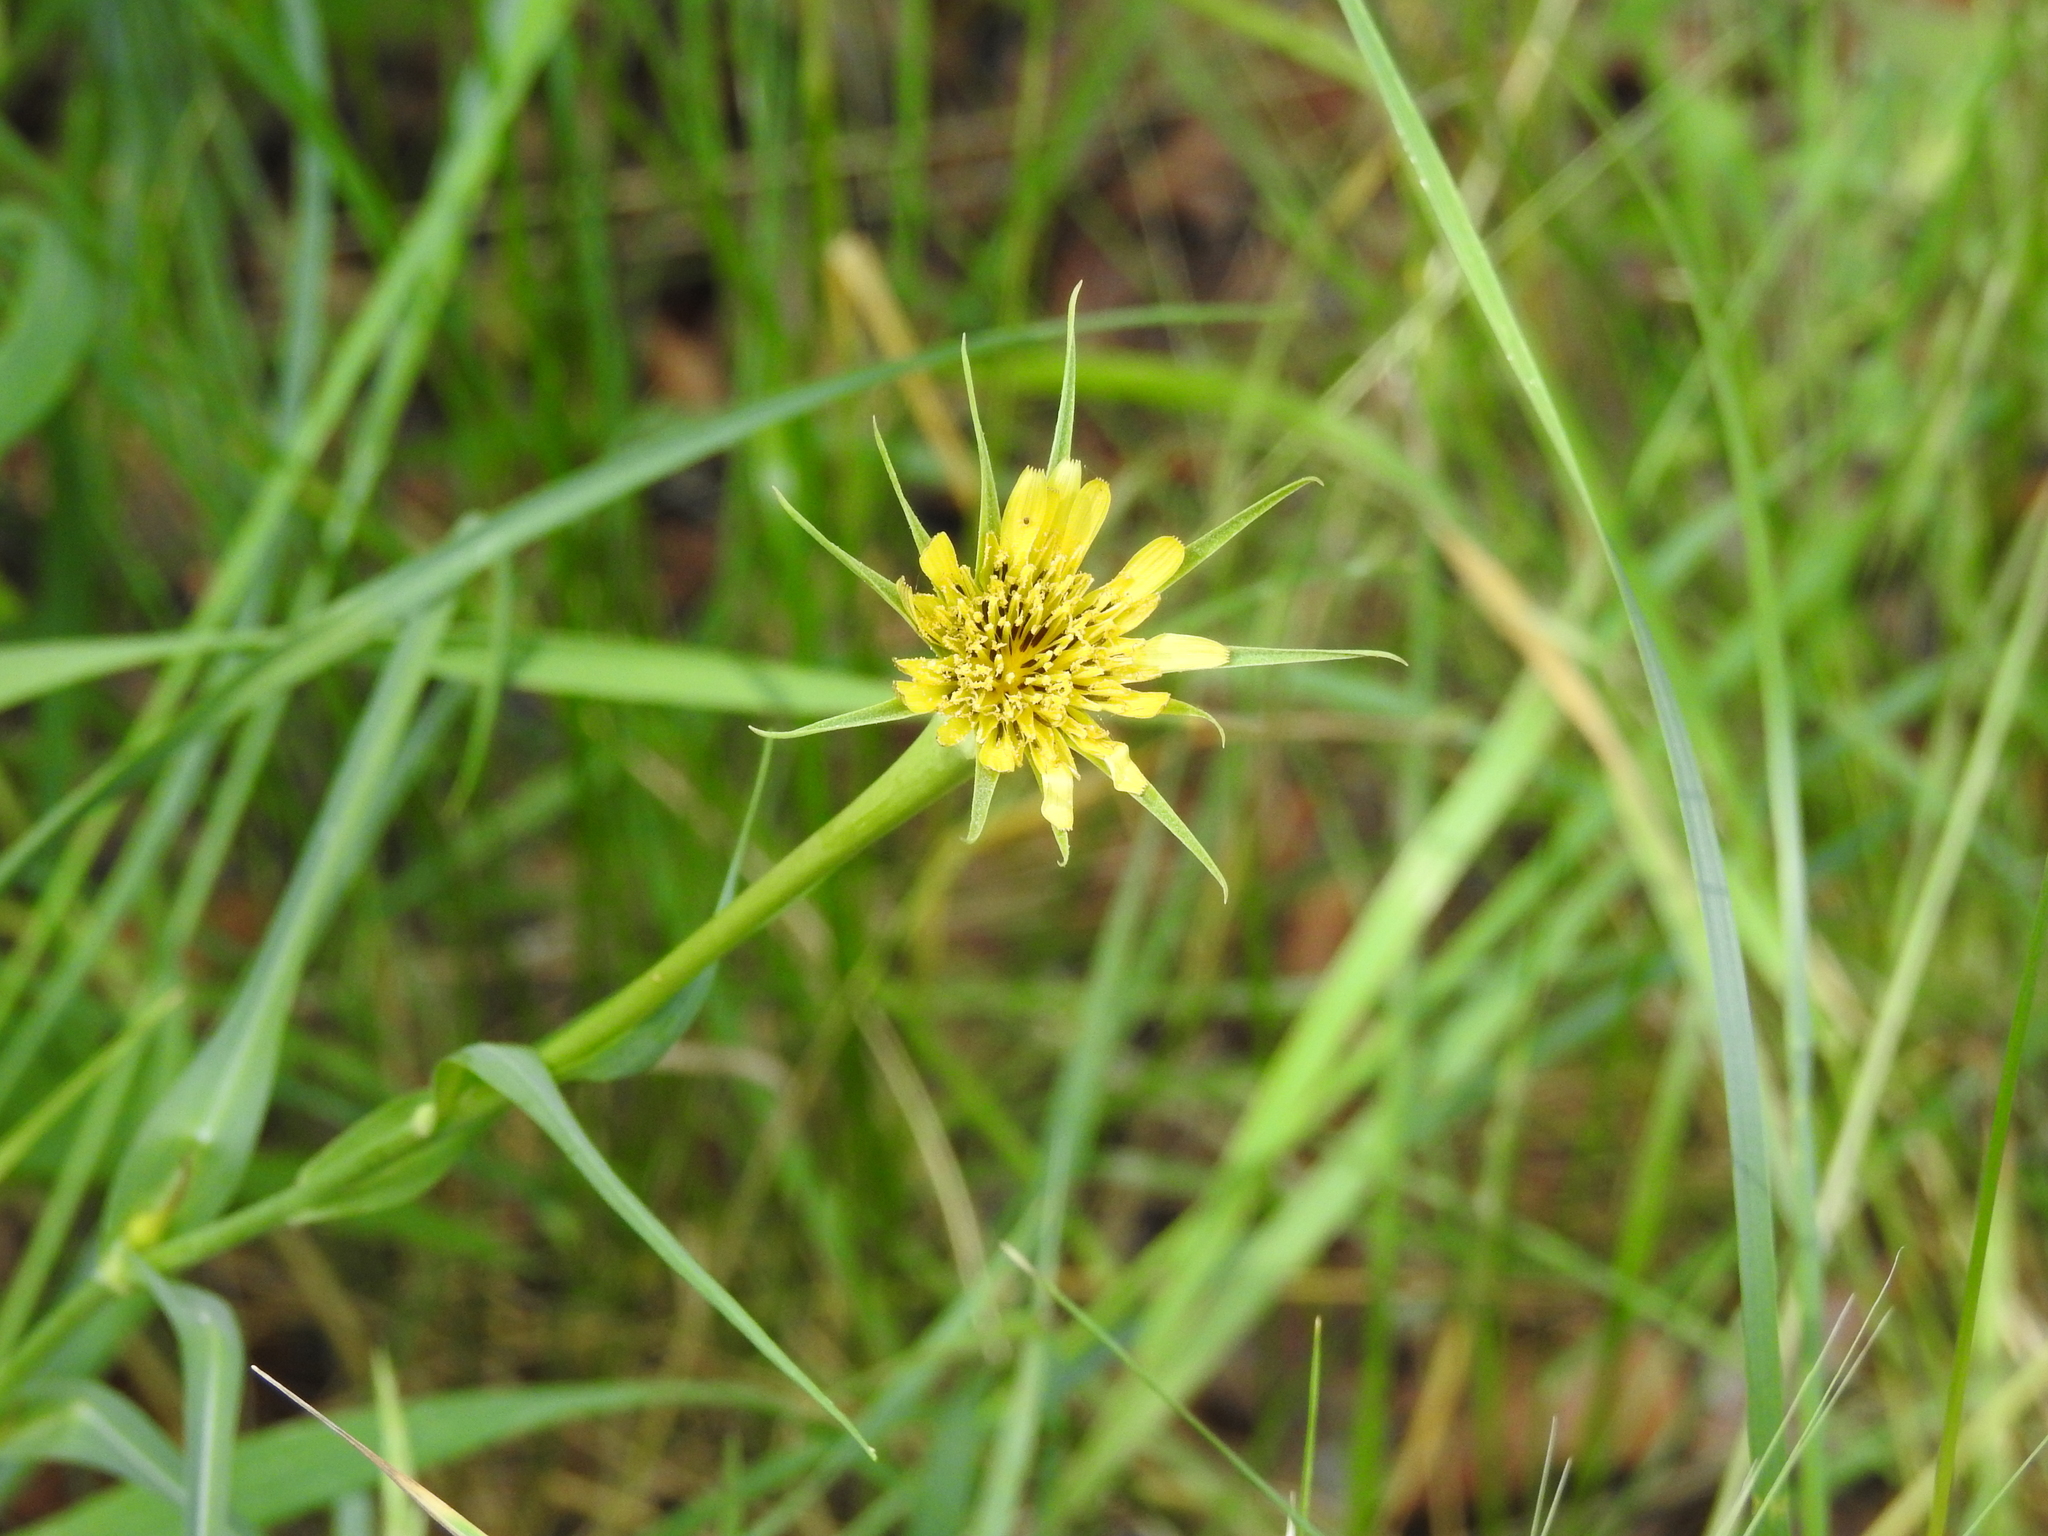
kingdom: Plantae
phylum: Tracheophyta
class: Magnoliopsida
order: Asterales
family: Asteraceae
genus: Tragopogon
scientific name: Tragopogon dubius
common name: Yellow salsify
